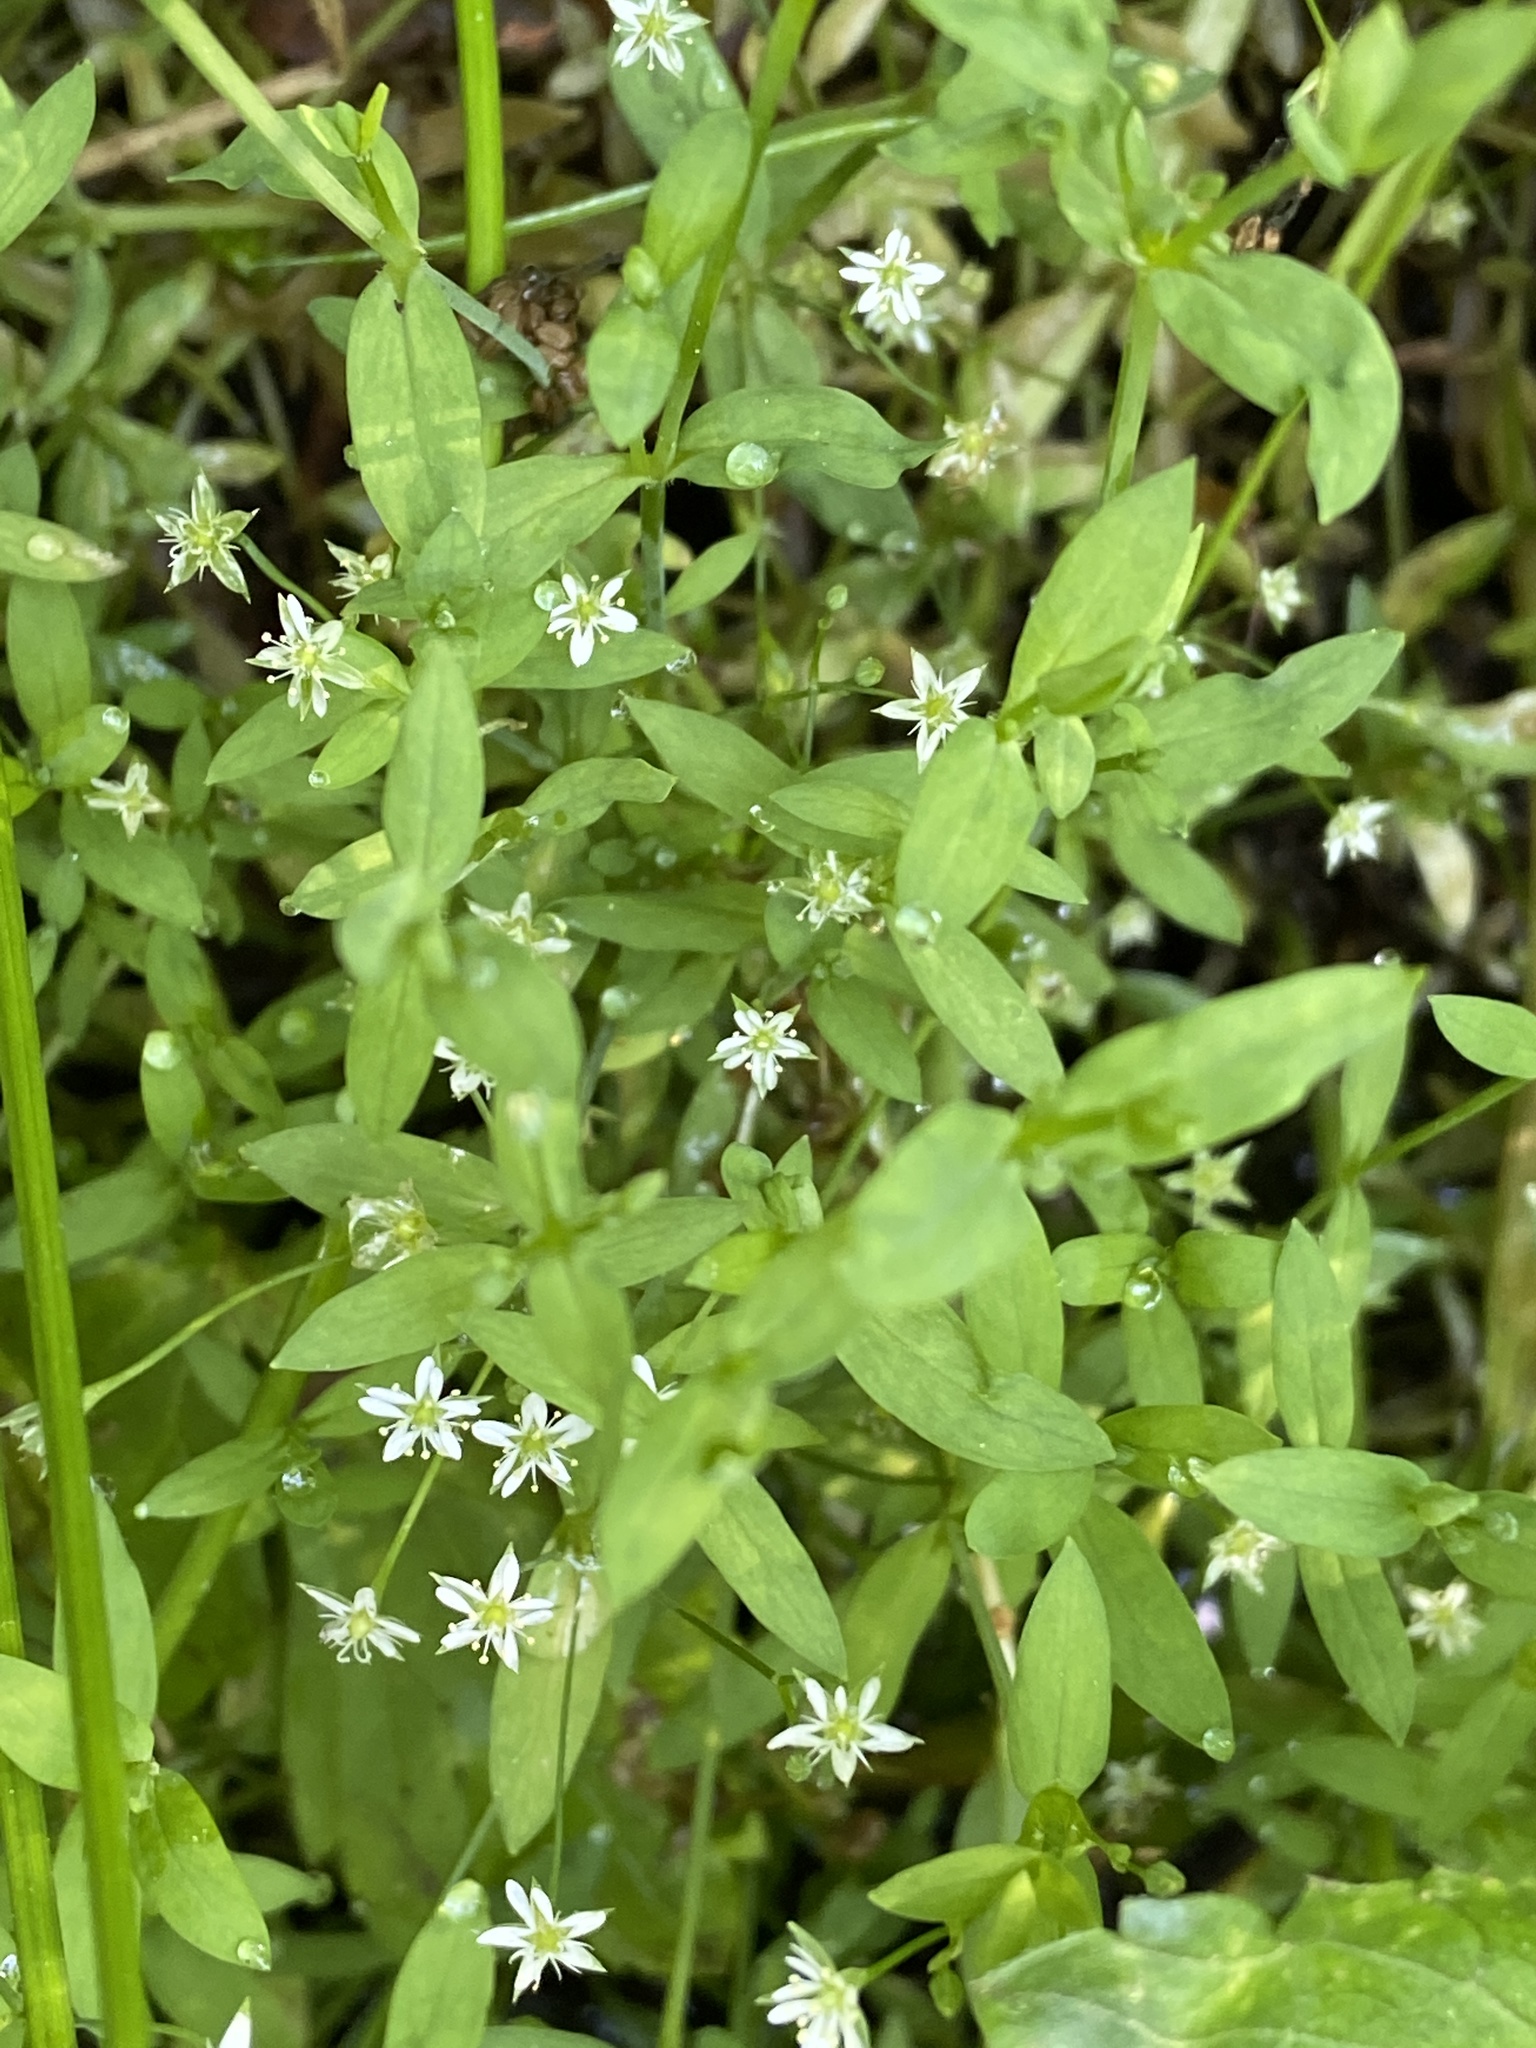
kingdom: Plantae
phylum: Tracheophyta
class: Magnoliopsida
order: Caryophyllales
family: Caryophyllaceae
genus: Stellaria
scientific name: Stellaria alsine
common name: Bog stitchwort
